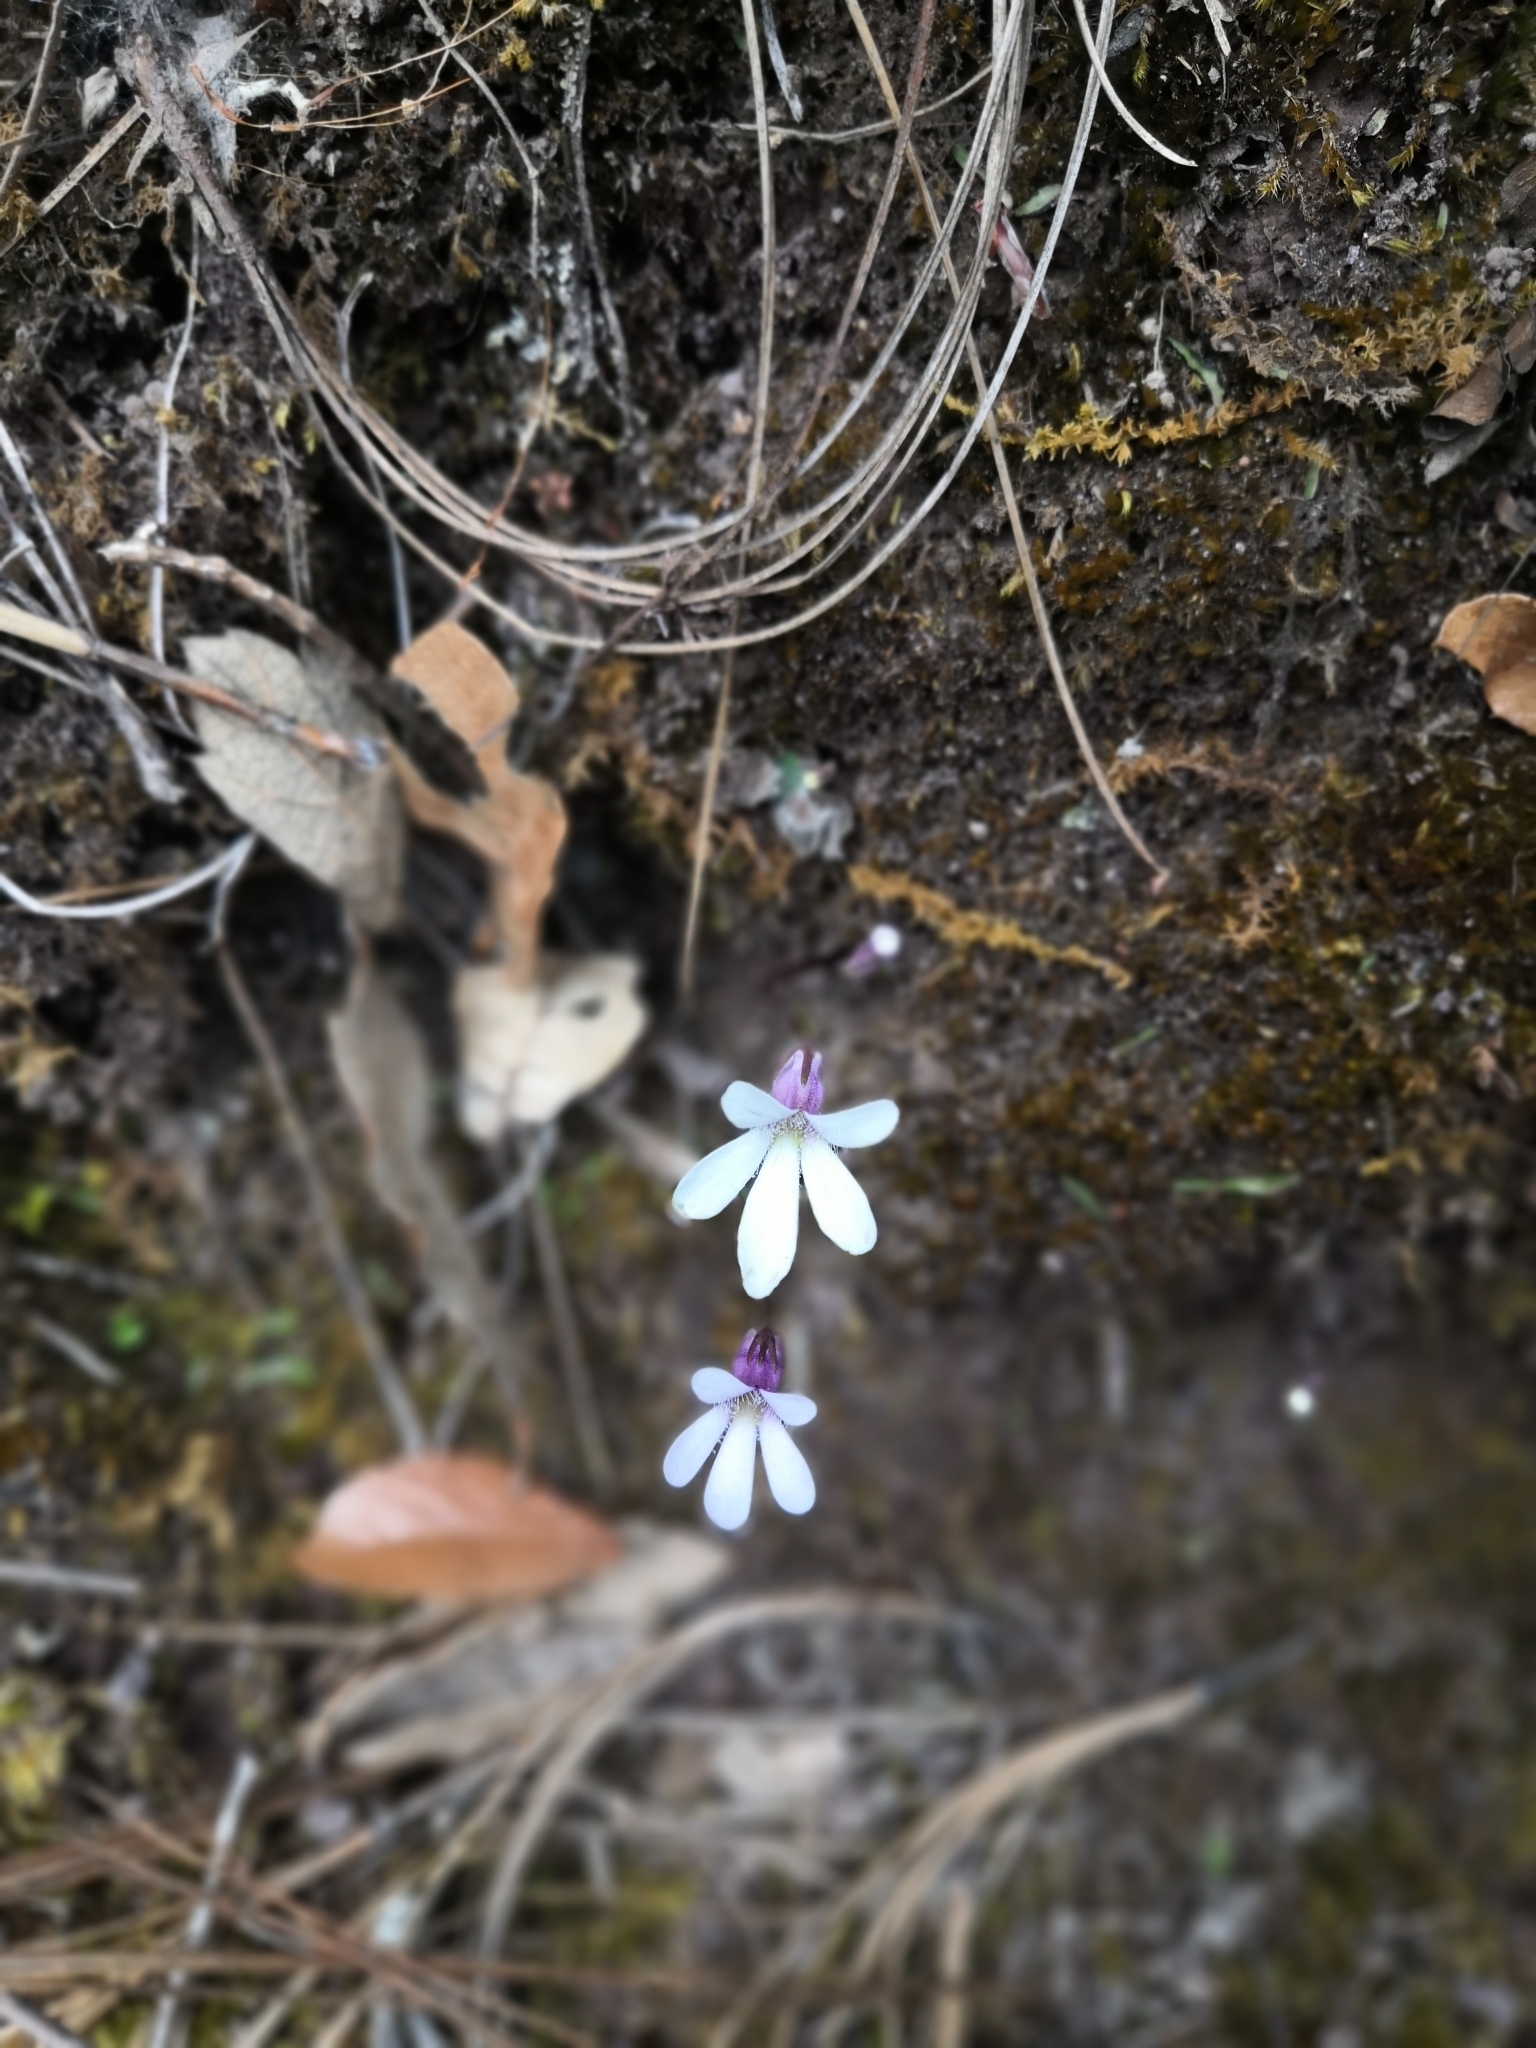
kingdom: Plantae
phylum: Tracheophyta
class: Magnoliopsida
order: Lamiales
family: Lentibulariaceae
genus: Pinguicula
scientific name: Pinguicula parvifolia
